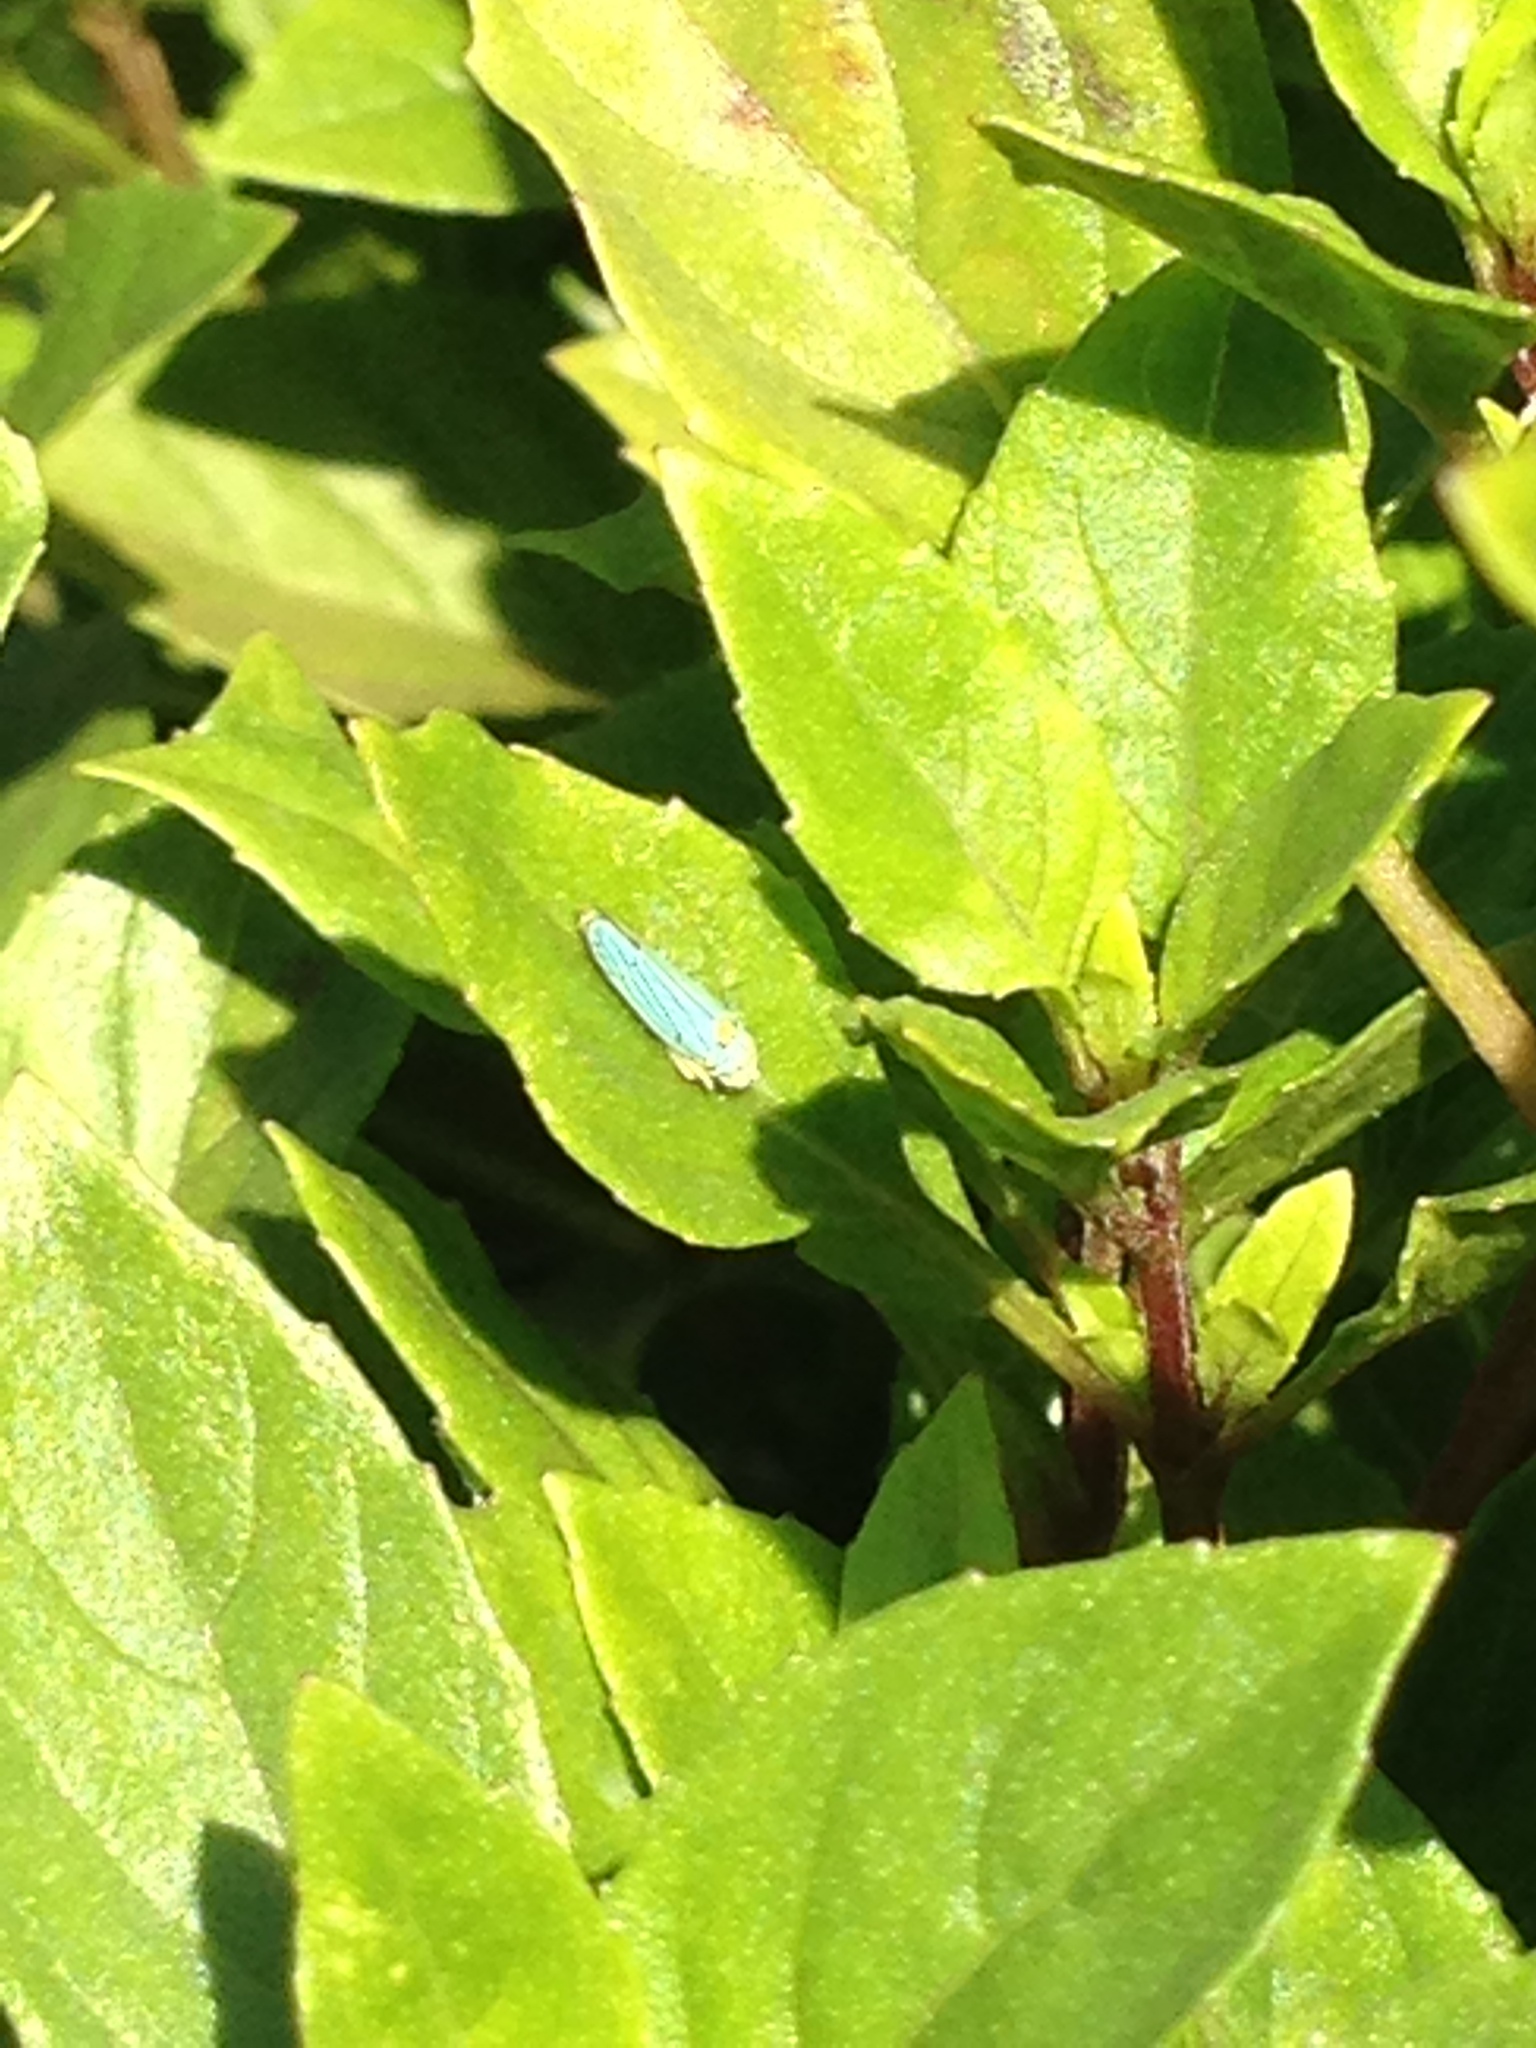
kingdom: Animalia
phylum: Arthropoda
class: Insecta
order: Hemiptera
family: Cicadellidae
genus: Graphocephala
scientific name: Graphocephala atropunctata
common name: Blue-green sharpshooter
